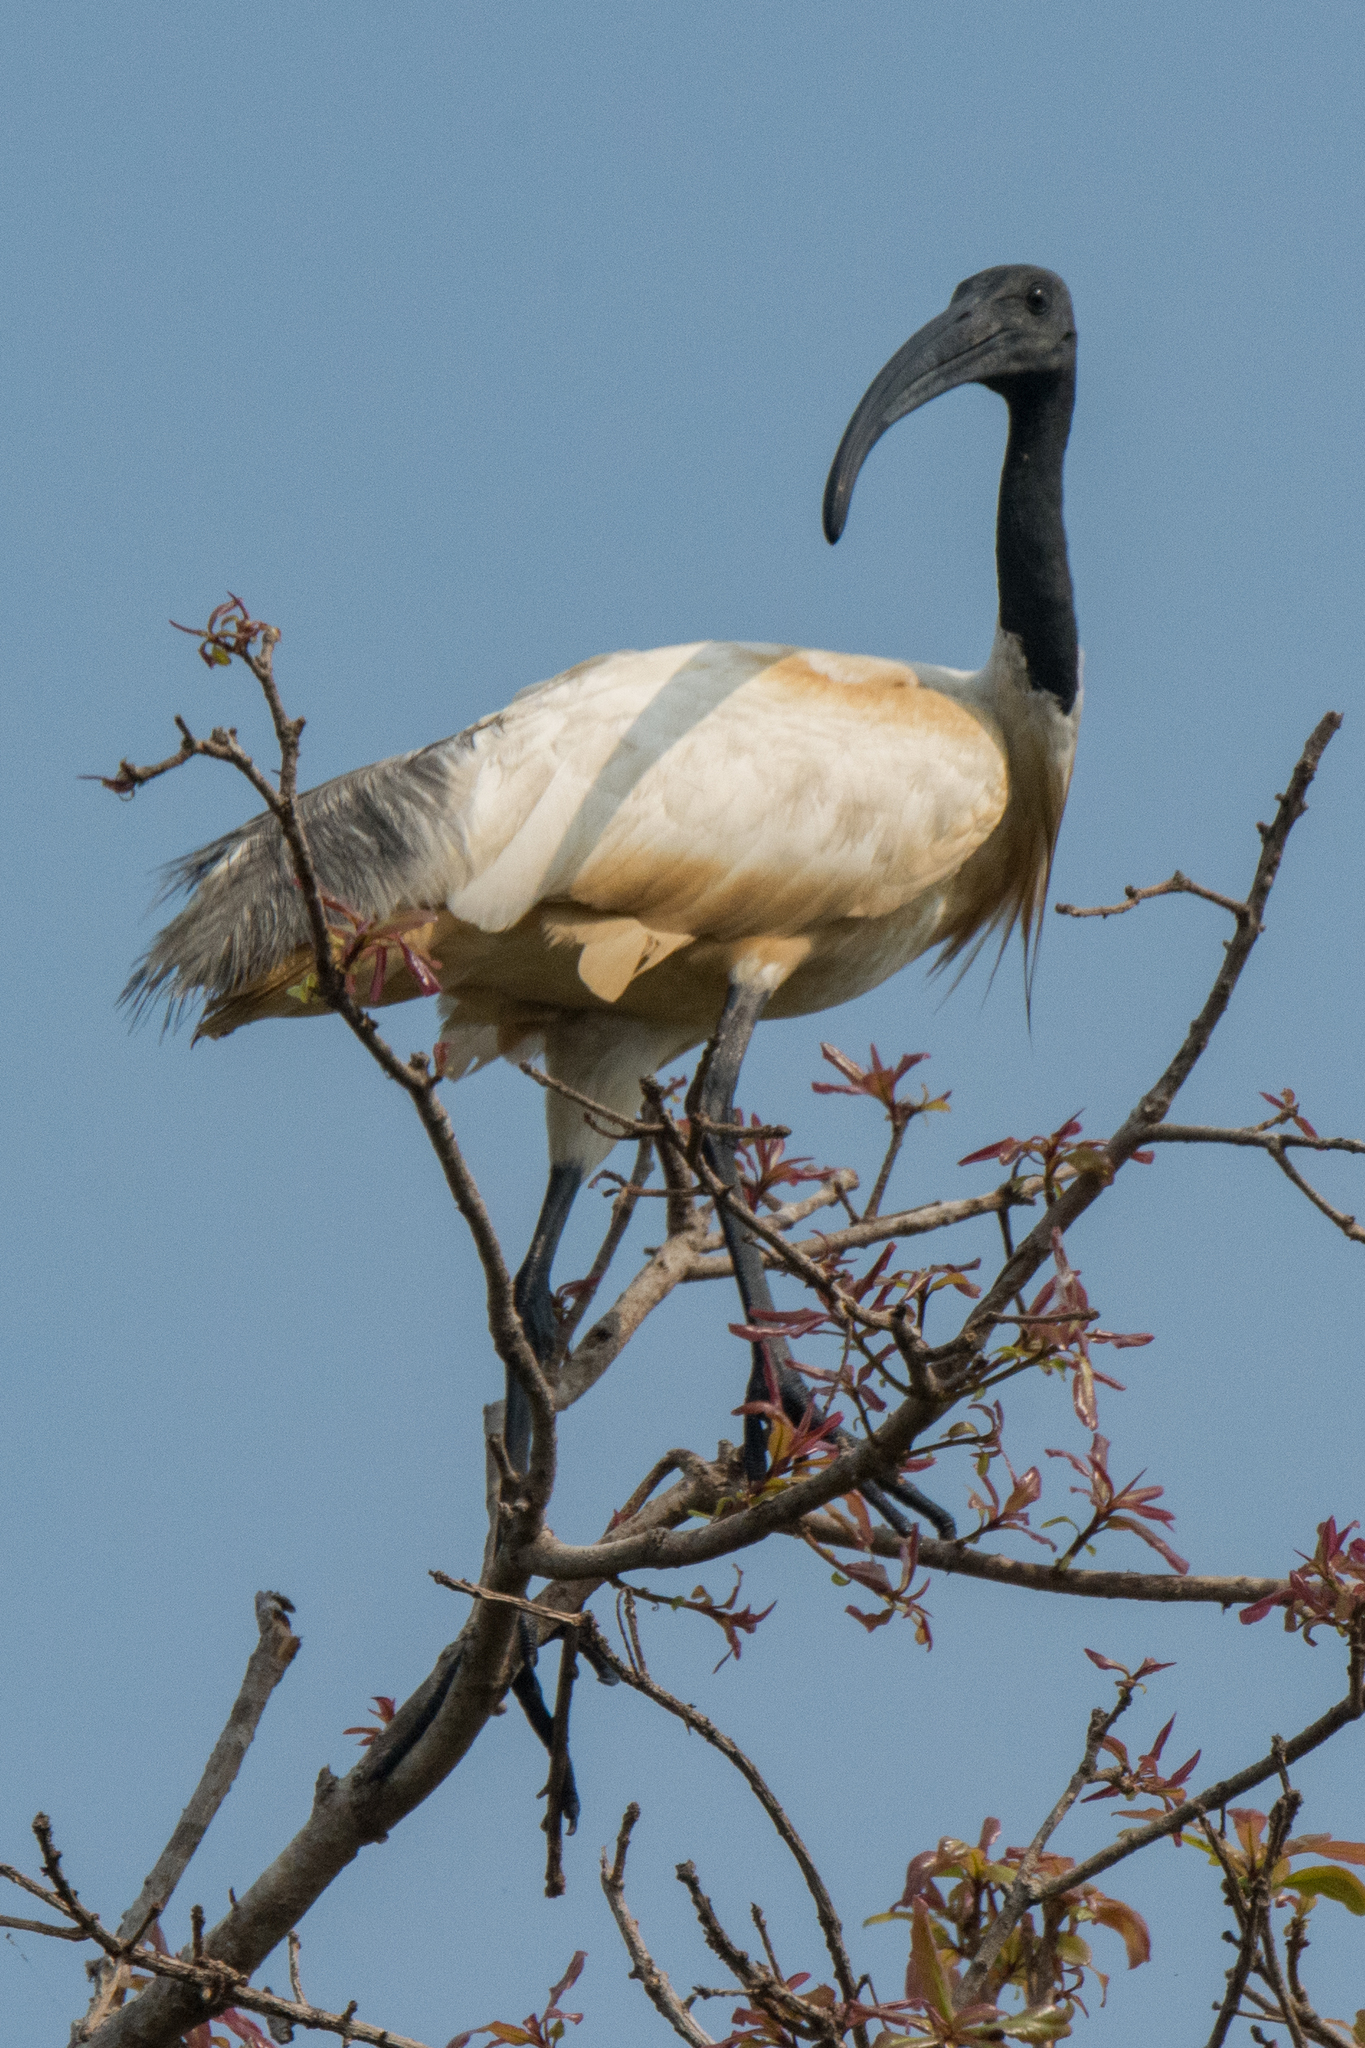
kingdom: Animalia
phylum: Chordata
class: Aves
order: Pelecaniformes
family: Threskiornithidae
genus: Threskiornis
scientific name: Threskiornis melanocephalus
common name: Black-headed ibis
